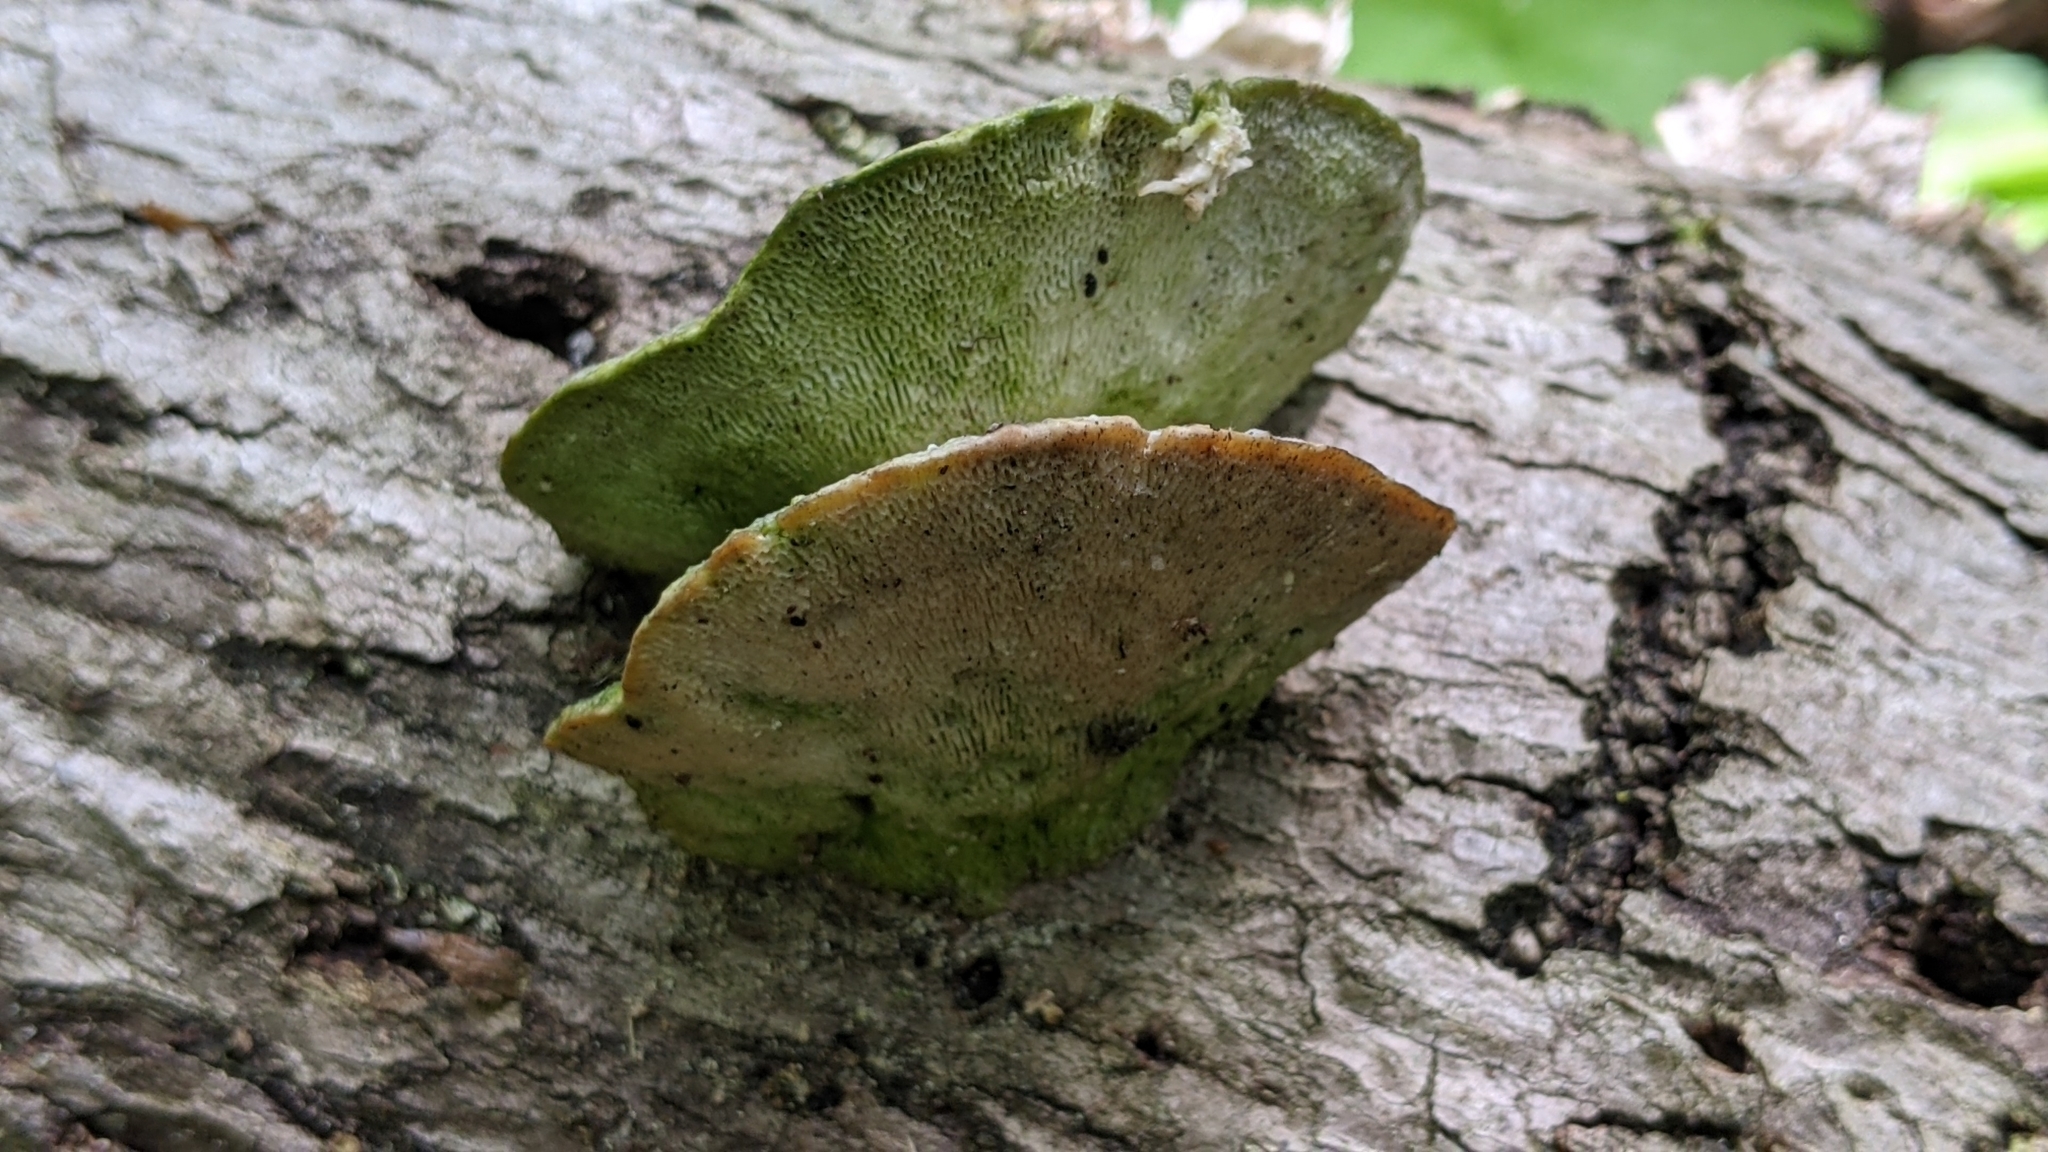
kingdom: Fungi
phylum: Basidiomycota
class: Agaricomycetes
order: Polyporales
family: Polyporaceae
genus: Trametes
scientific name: Trametes gibbosa
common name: Lumpy bracket
